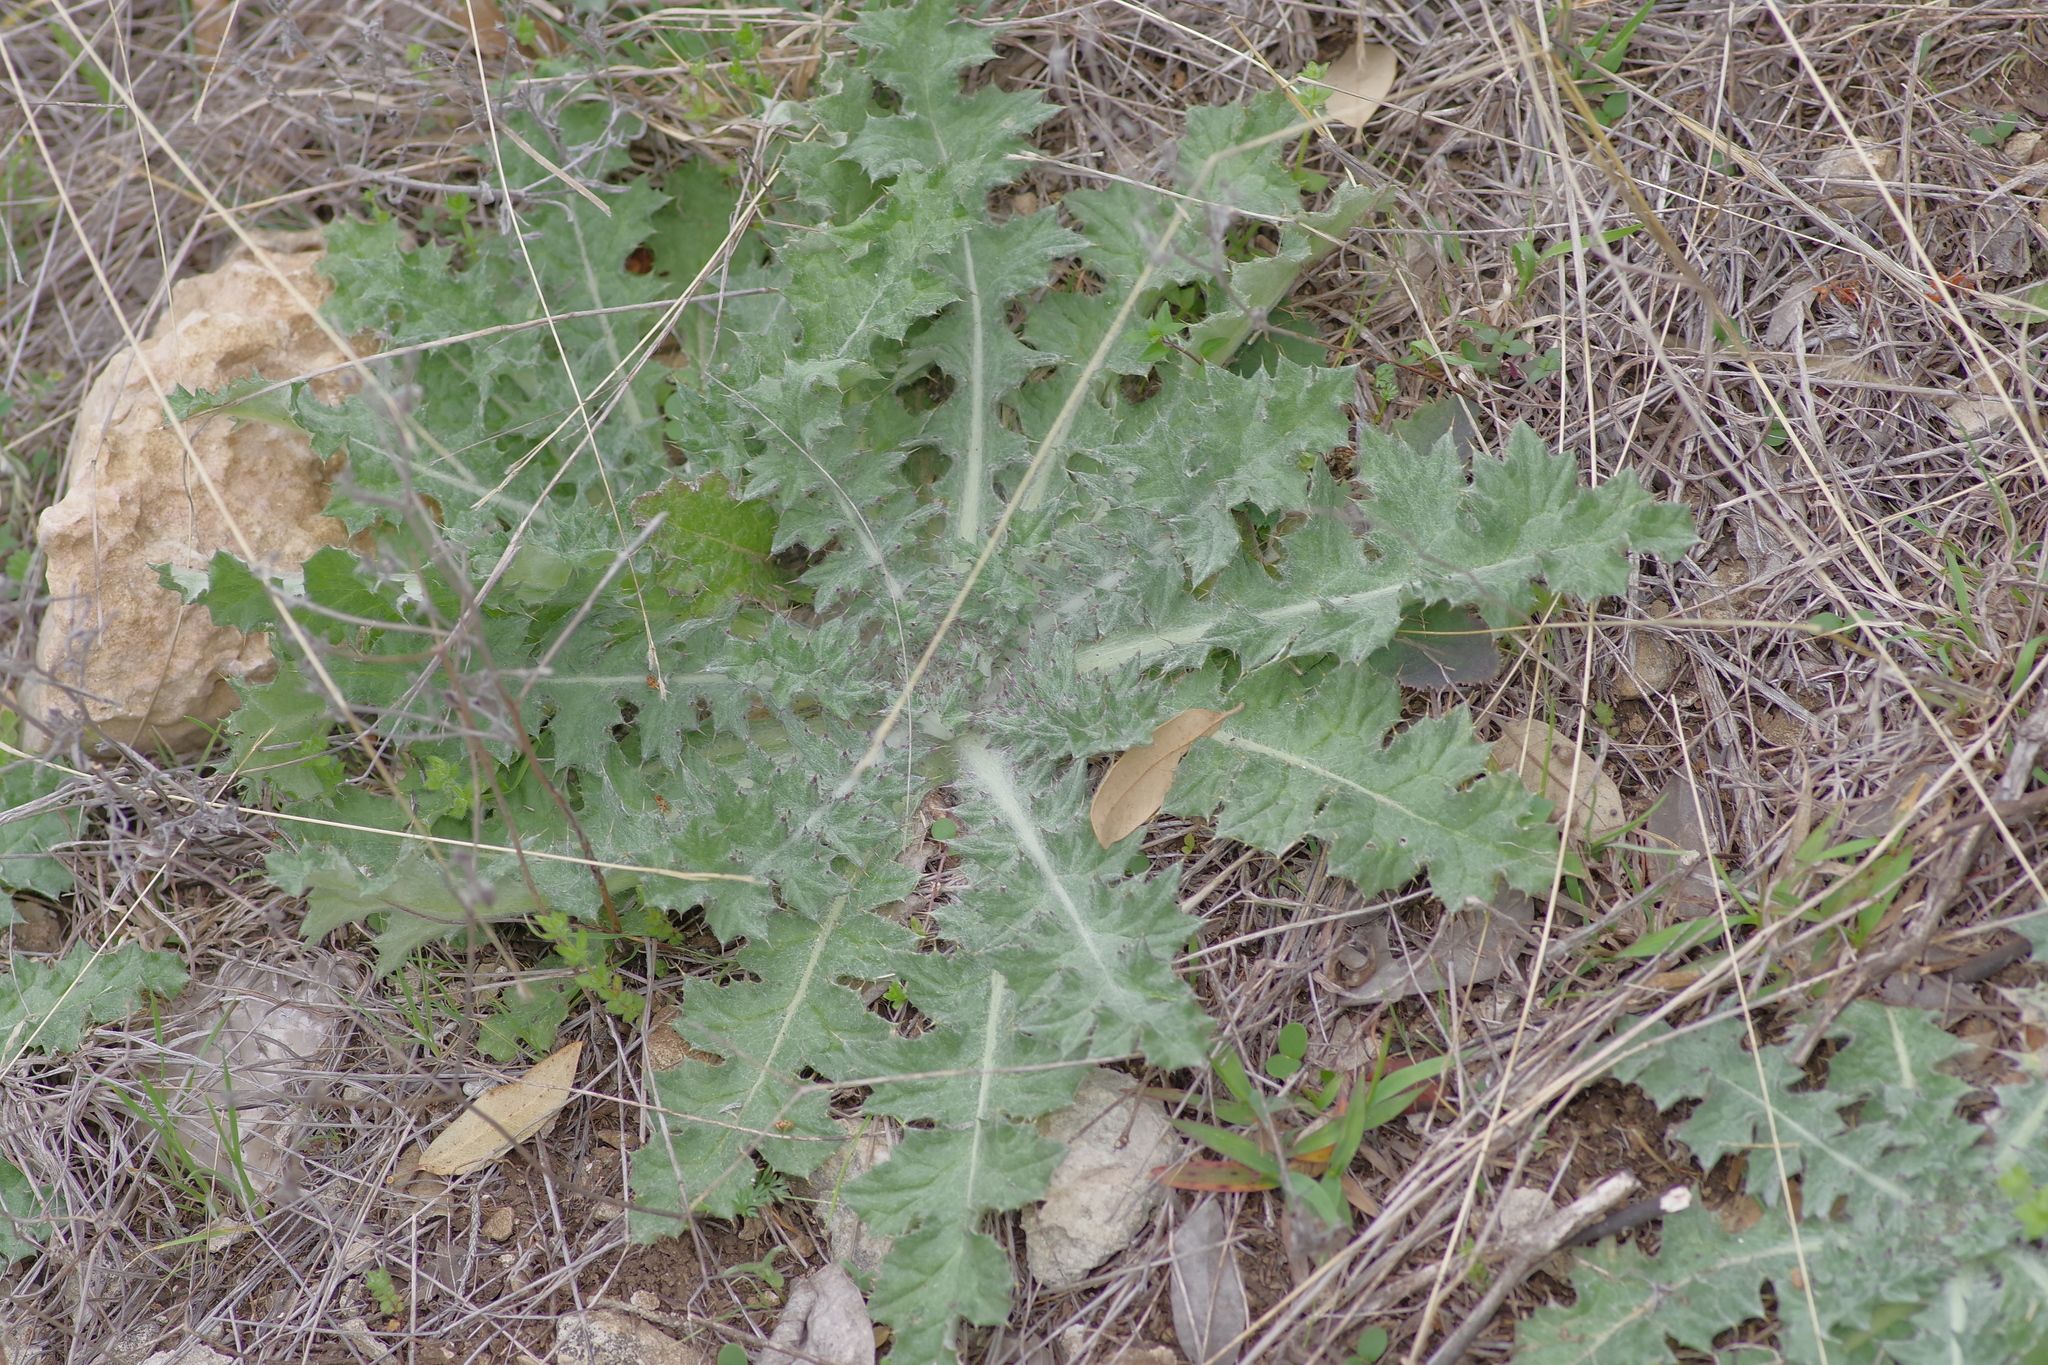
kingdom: Plantae
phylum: Tracheophyta
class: Magnoliopsida
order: Asterales
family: Asteraceae
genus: Cirsium
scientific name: Cirsium texanum
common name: Texas purple thistle
